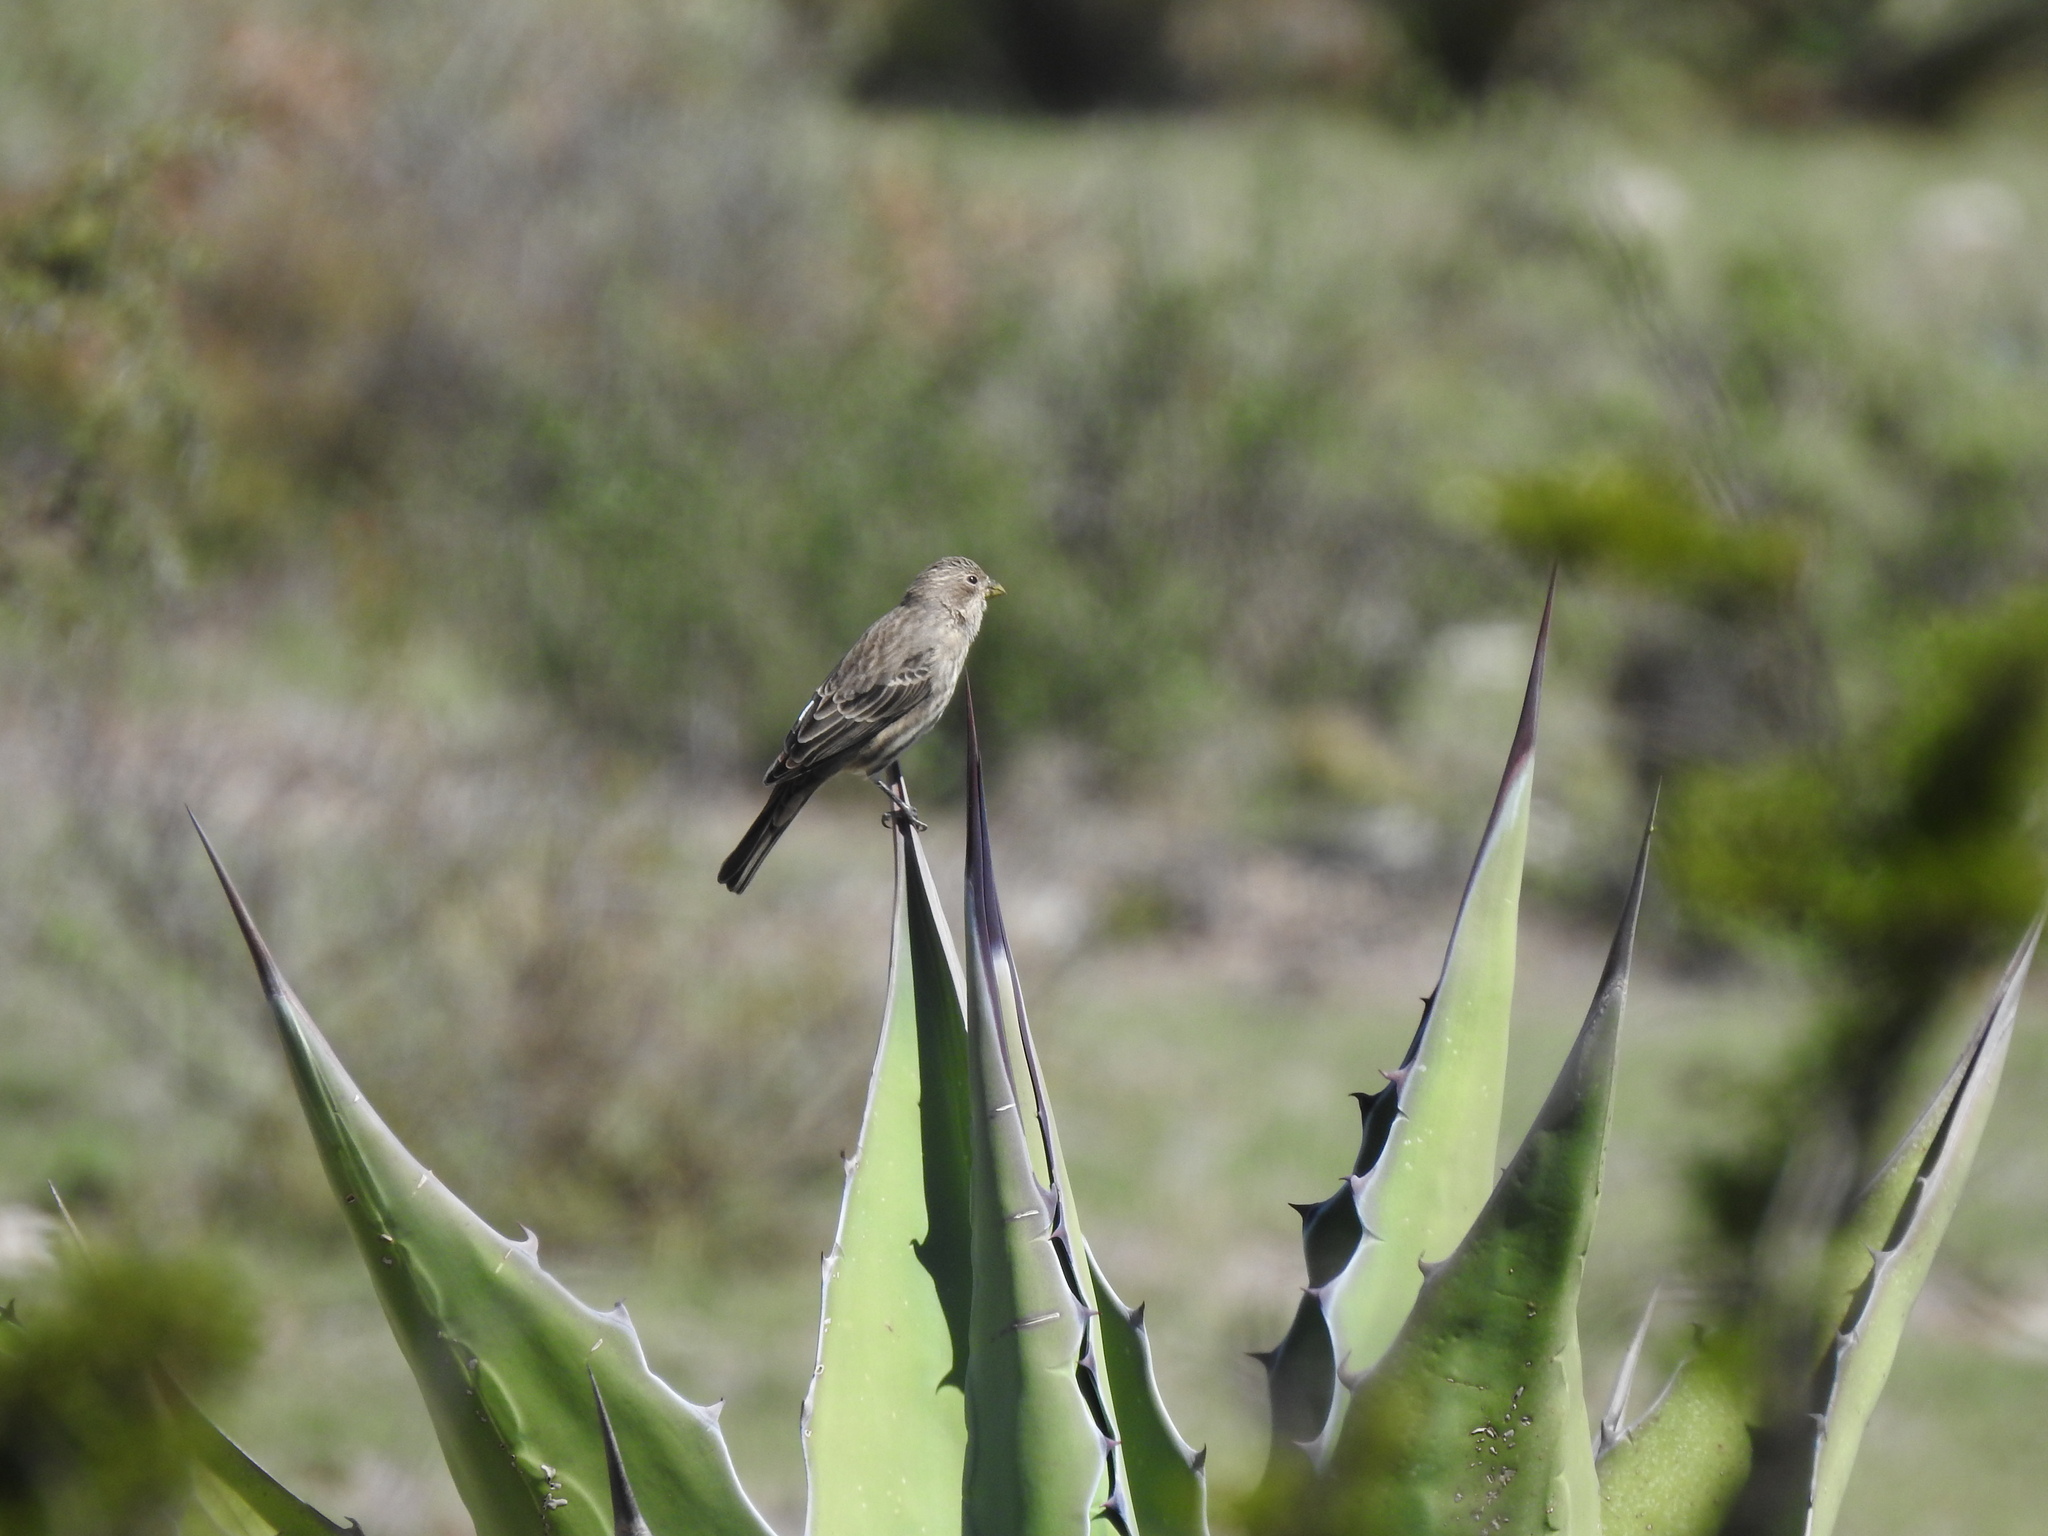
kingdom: Animalia
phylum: Chordata
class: Aves
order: Passeriformes
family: Fringillidae
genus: Haemorhous
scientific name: Haemorhous mexicanus
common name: House finch
